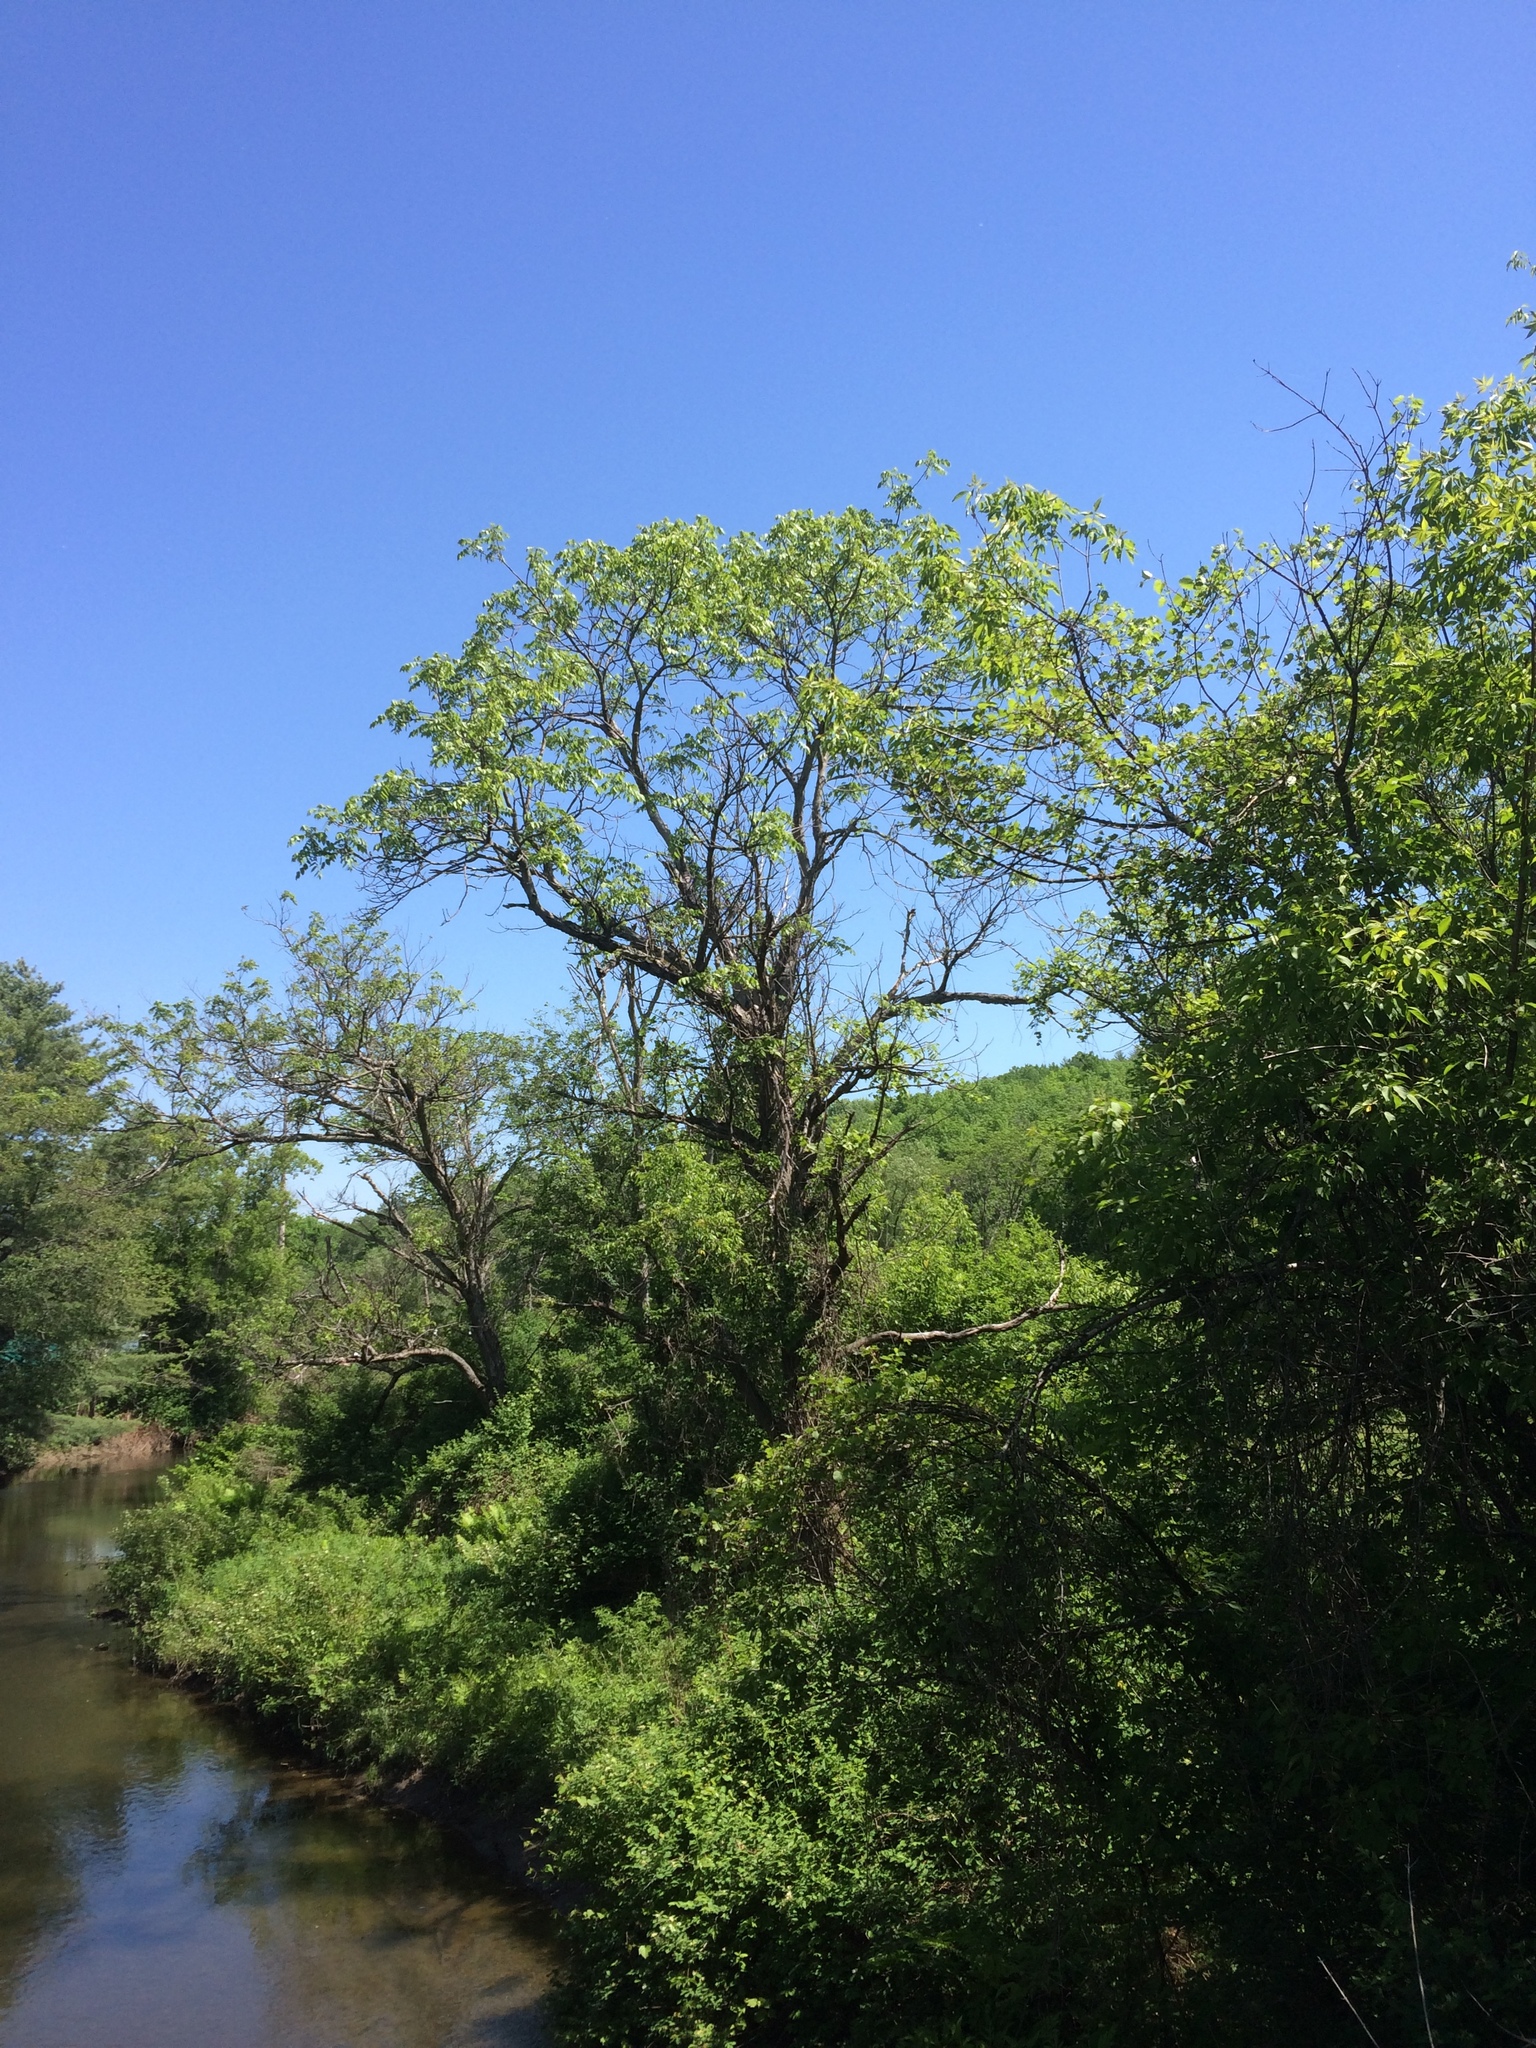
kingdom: Plantae
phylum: Tracheophyta
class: Magnoliopsida
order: Fagales
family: Juglandaceae
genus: Juglans
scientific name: Juglans cinerea
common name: Butternut
